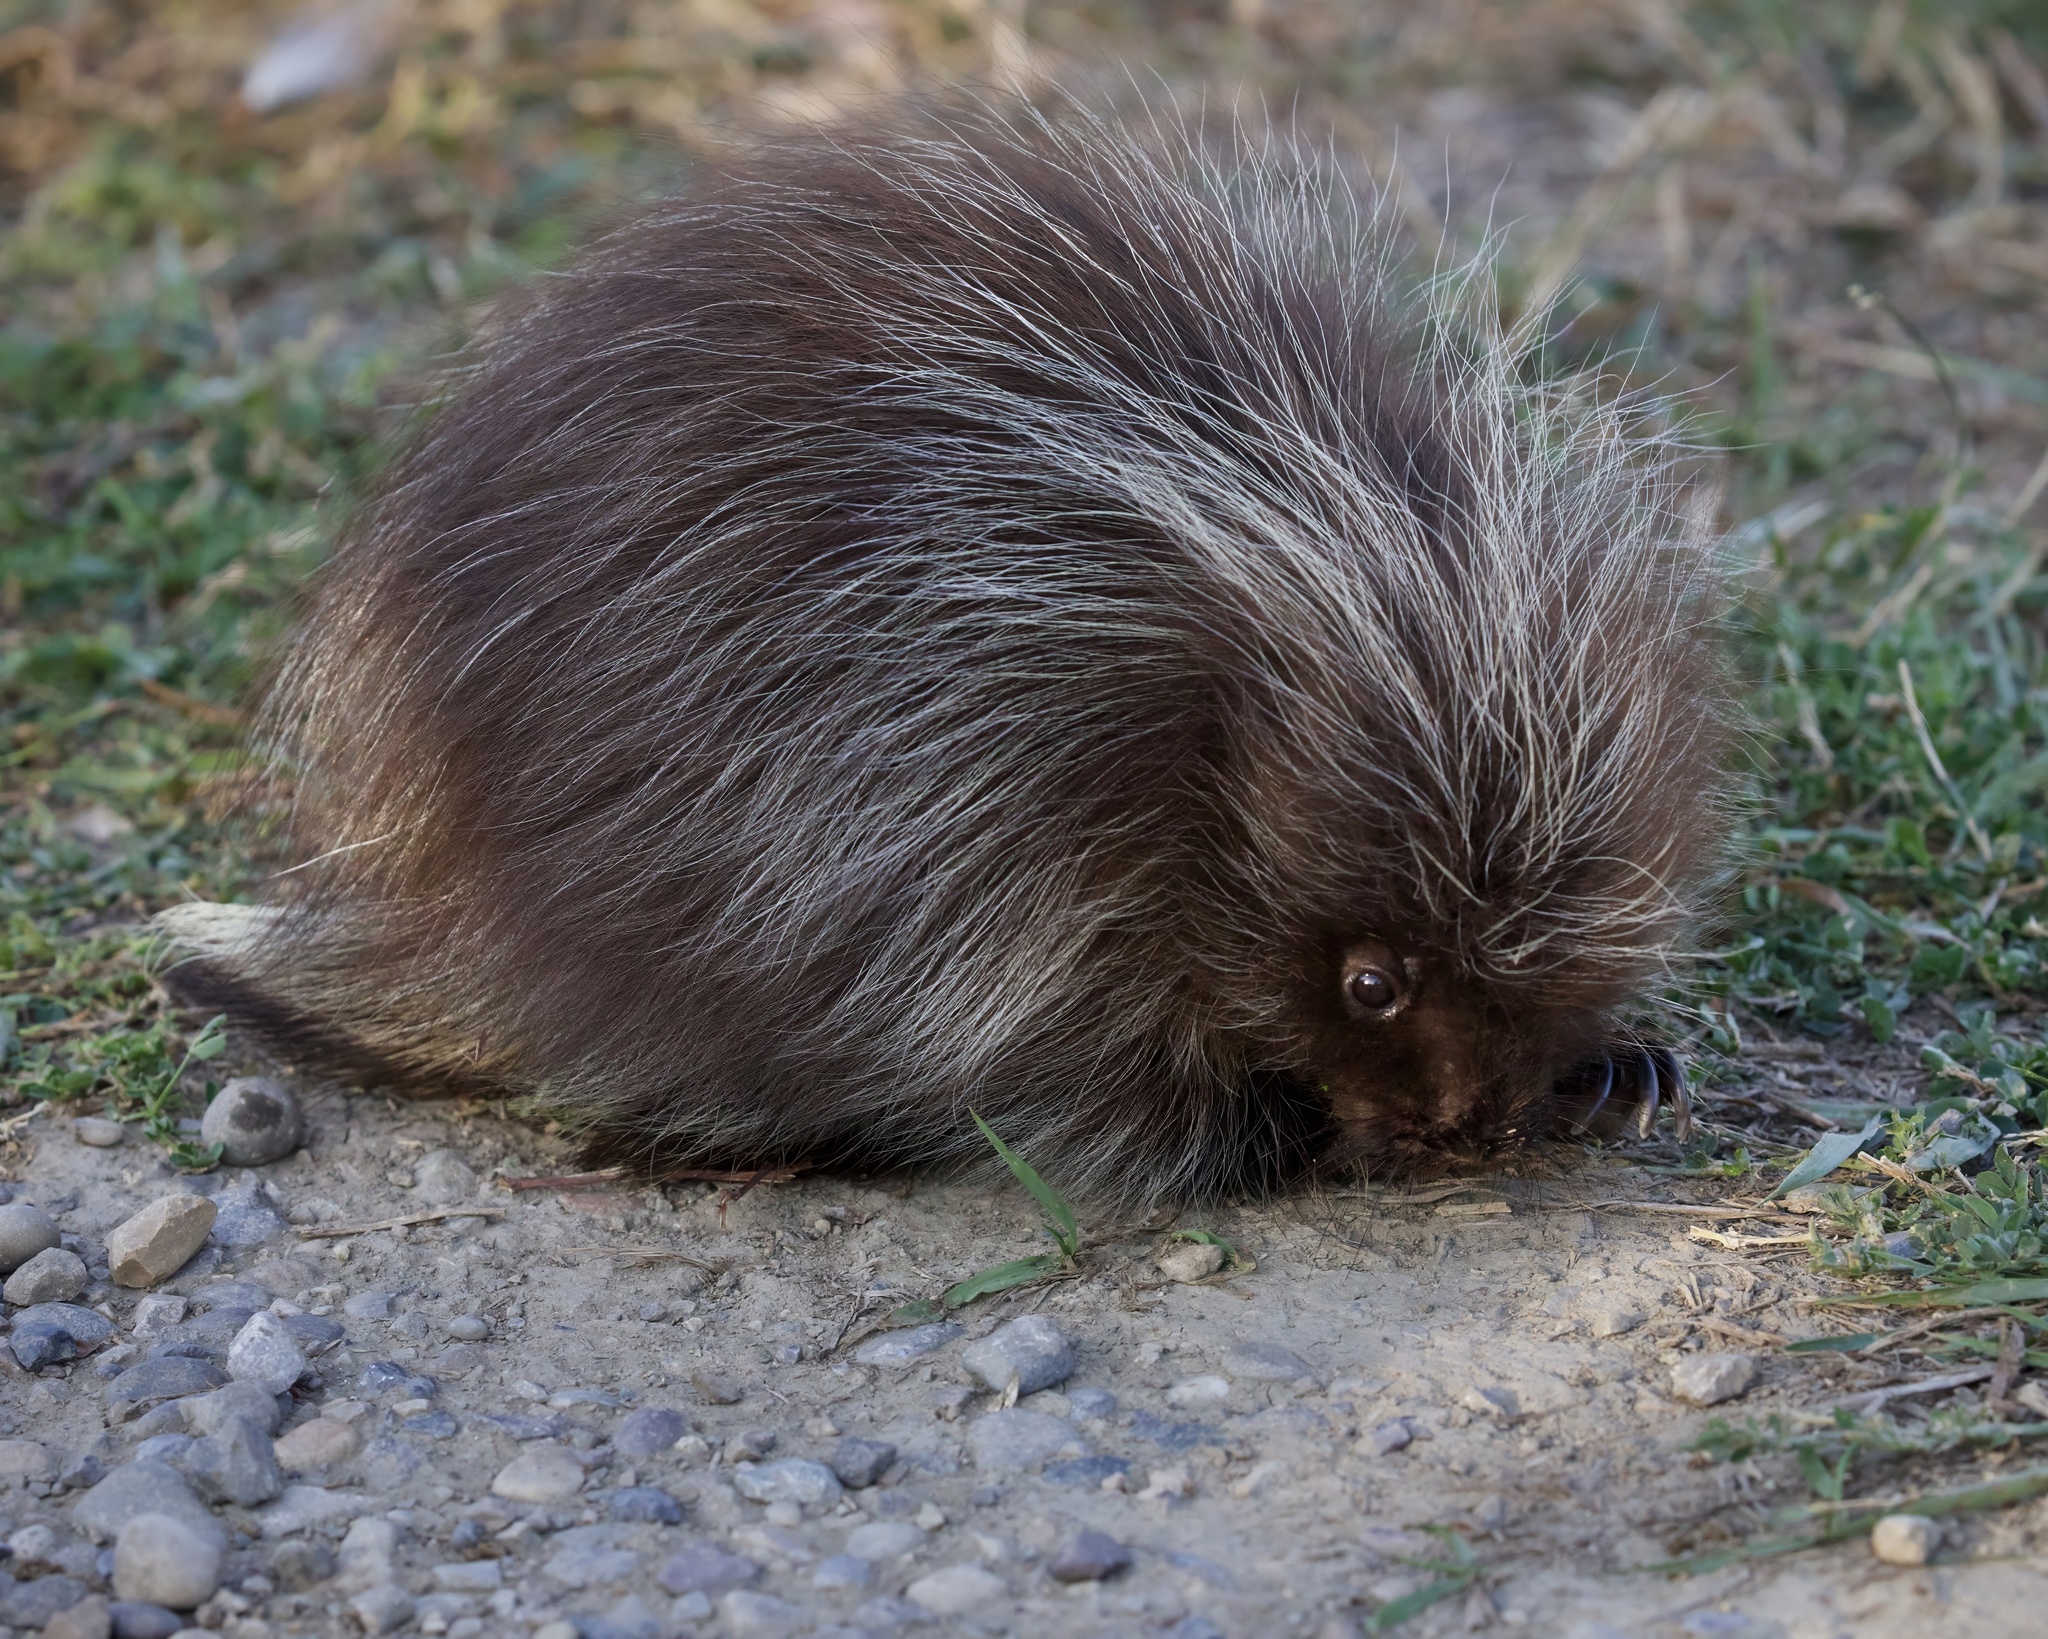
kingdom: Animalia
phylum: Chordata
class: Mammalia
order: Rodentia
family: Erethizontidae
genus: Erethizon
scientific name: Erethizon dorsatus
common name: North american porcupine
